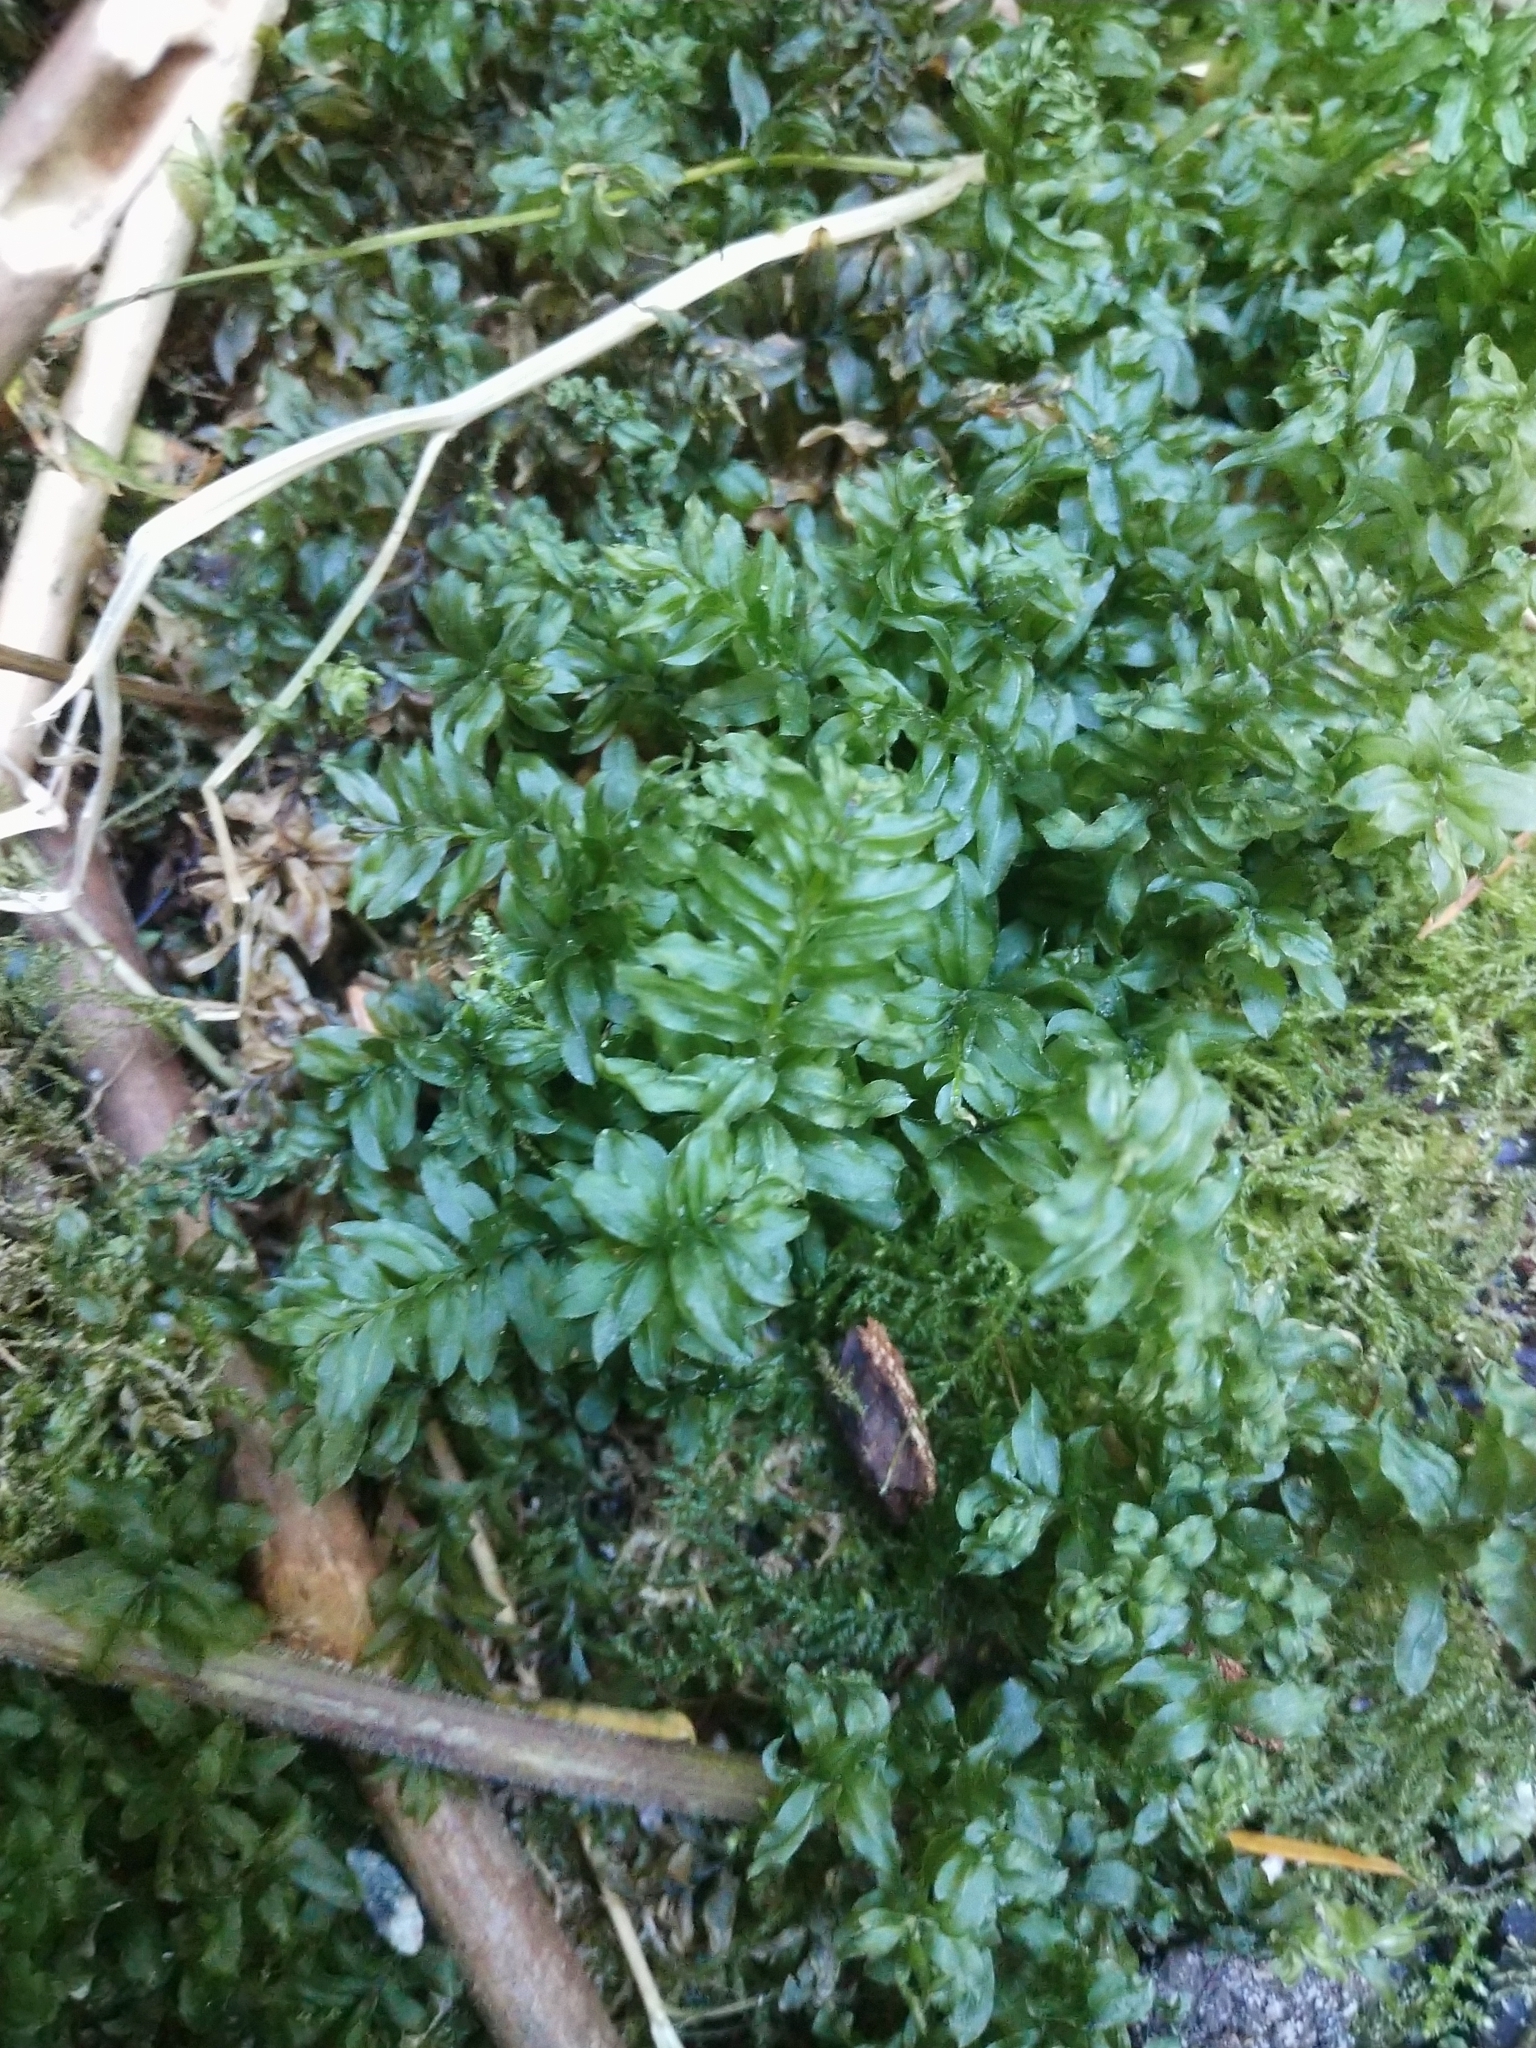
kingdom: Plantae
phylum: Bryophyta
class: Bryopsida
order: Bryales
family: Mniaceae
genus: Plagiomnium
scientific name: Plagiomnium insigne
